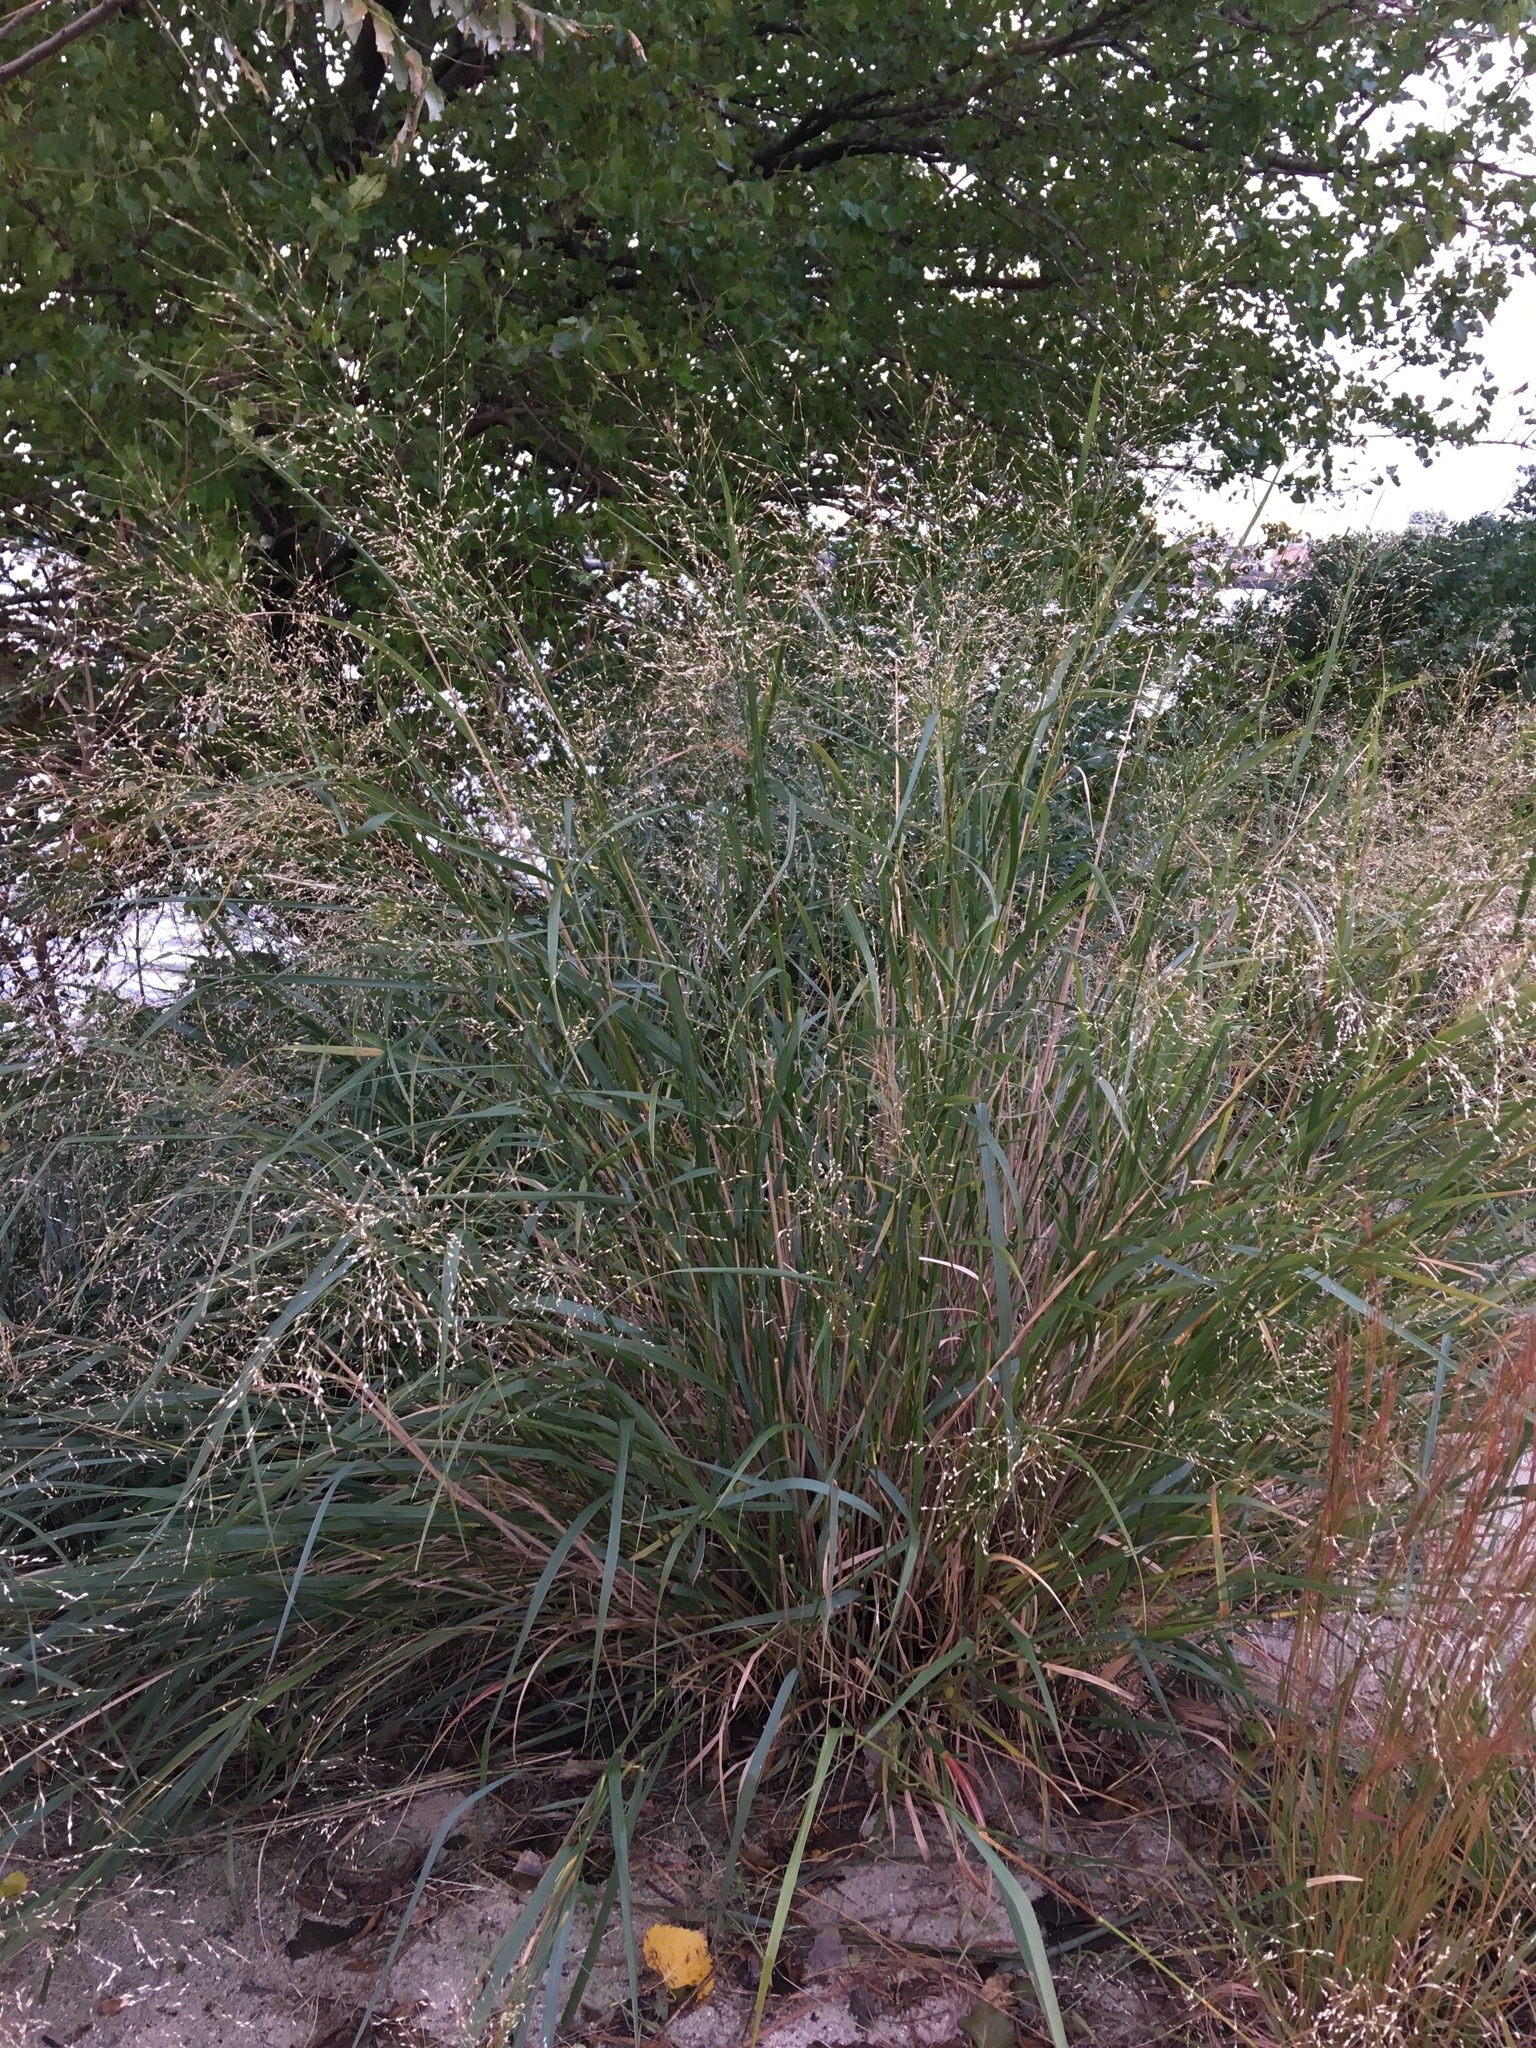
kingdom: Plantae
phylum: Tracheophyta
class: Liliopsida
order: Poales
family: Poaceae
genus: Panicum
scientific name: Panicum virgatum
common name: Switchgrass
